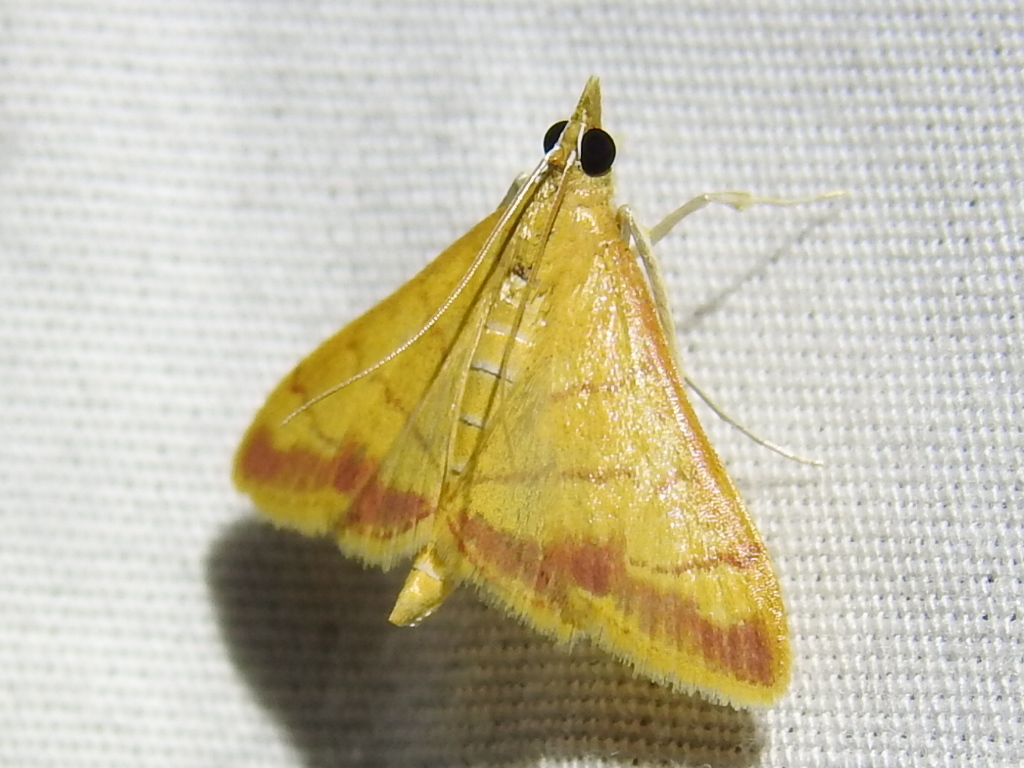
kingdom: Animalia
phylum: Arthropoda
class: Insecta
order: Lepidoptera
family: Crambidae
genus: Pyrausta
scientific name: Pyrausta pseudonythesalis
